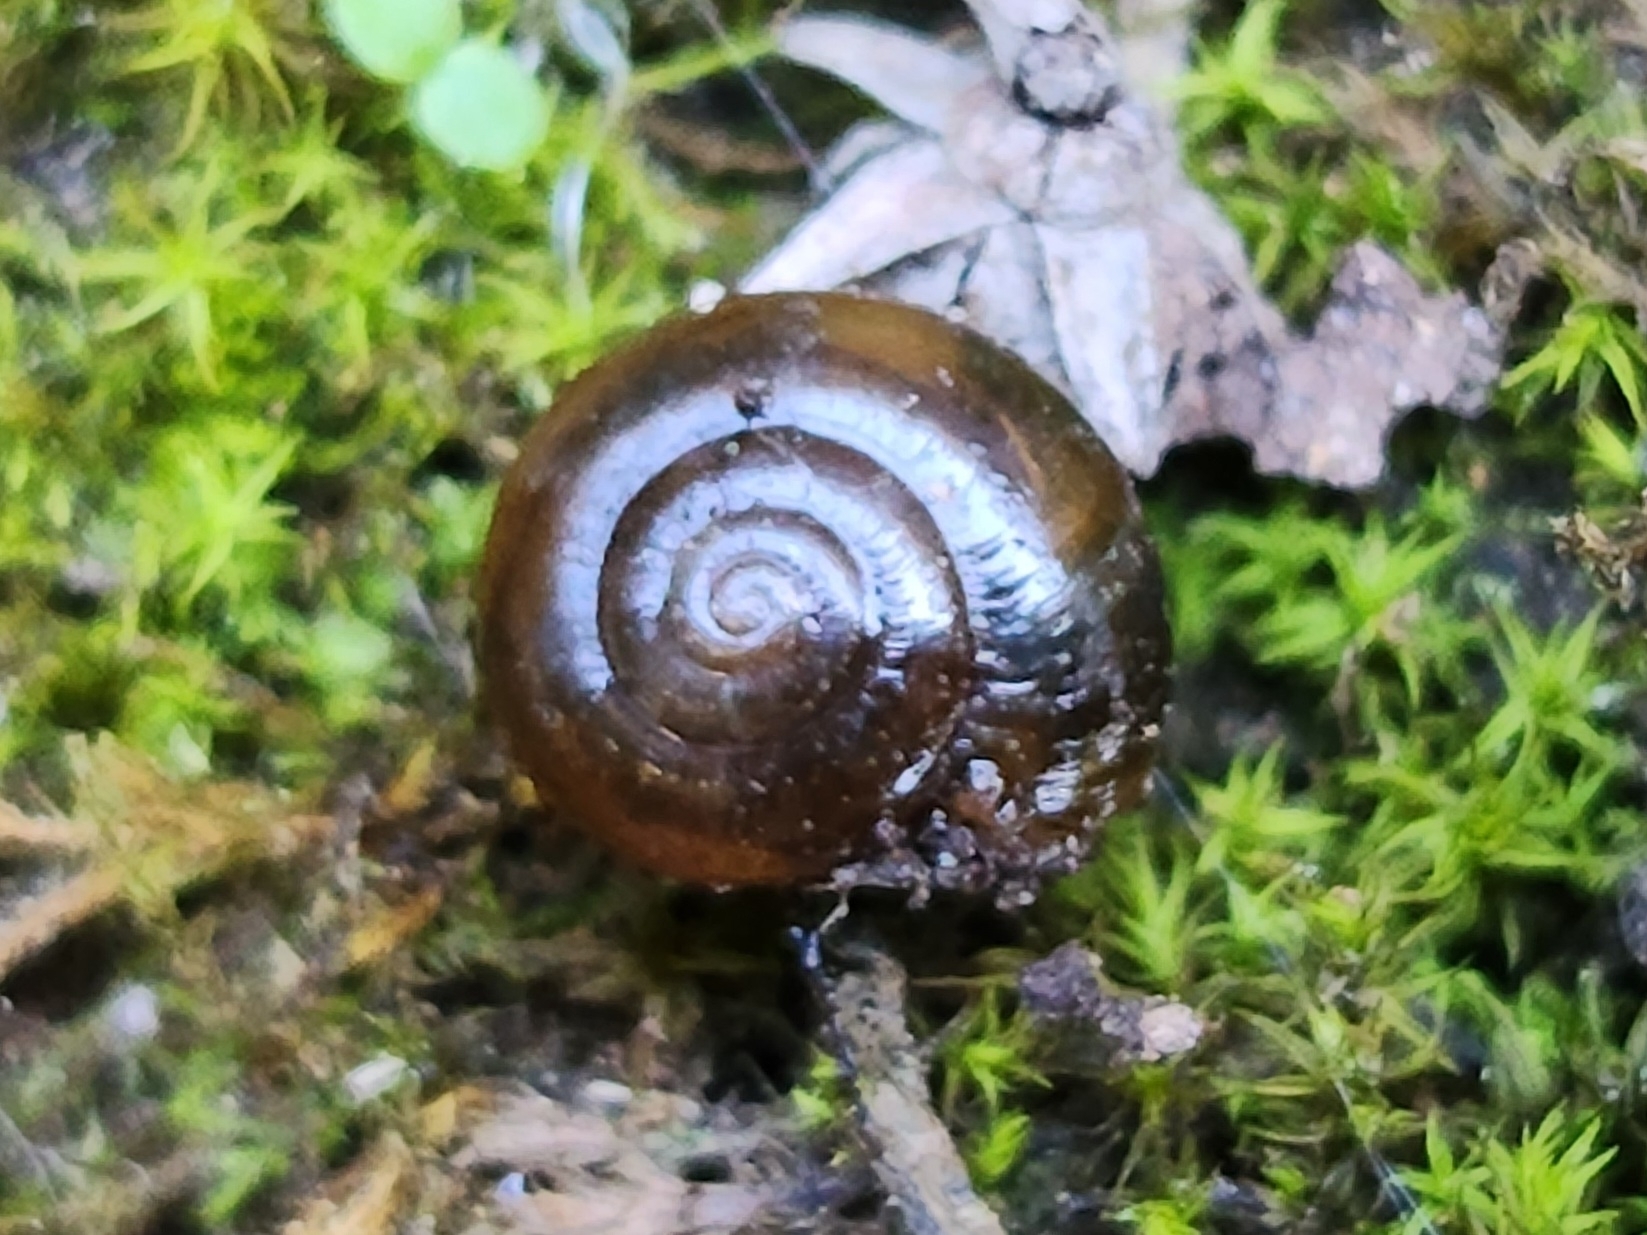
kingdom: Animalia
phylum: Mollusca
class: Gastropoda
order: Stylommatophora
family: Oxychilidae
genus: Oxychilus
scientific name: Oxychilus
